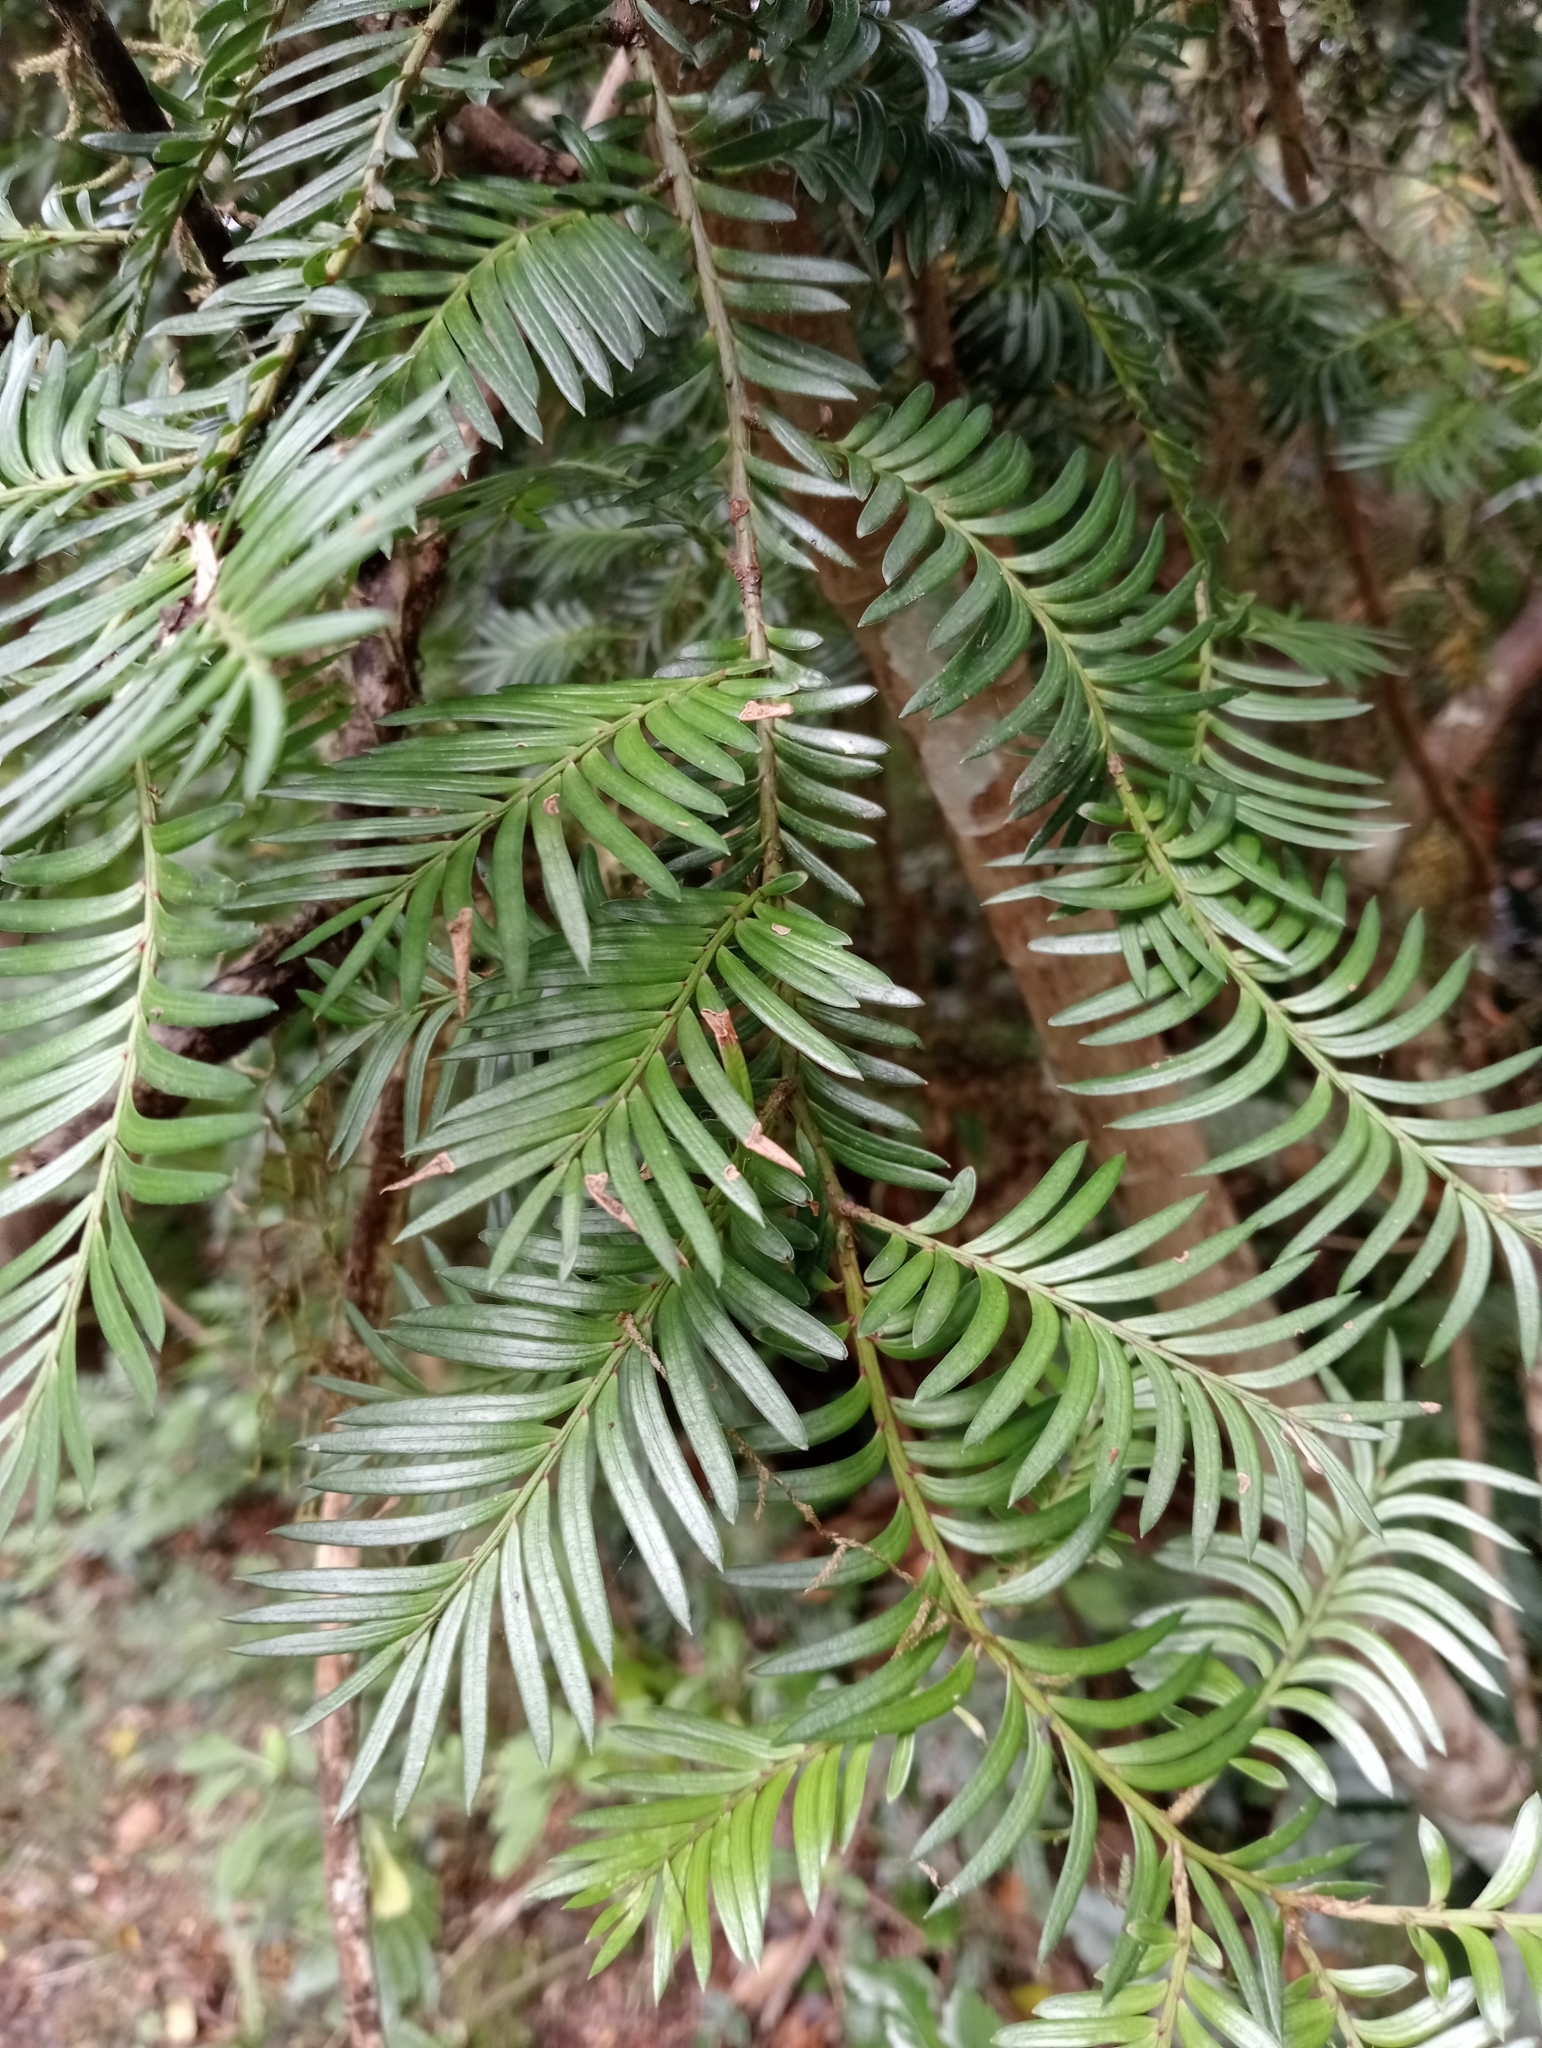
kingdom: Plantae
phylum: Tracheophyta
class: Pinopsida
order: Pinales
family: Podocarpaceae
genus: Prumnopitys
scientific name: Prumnopitys ferruginea
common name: Brown pine
